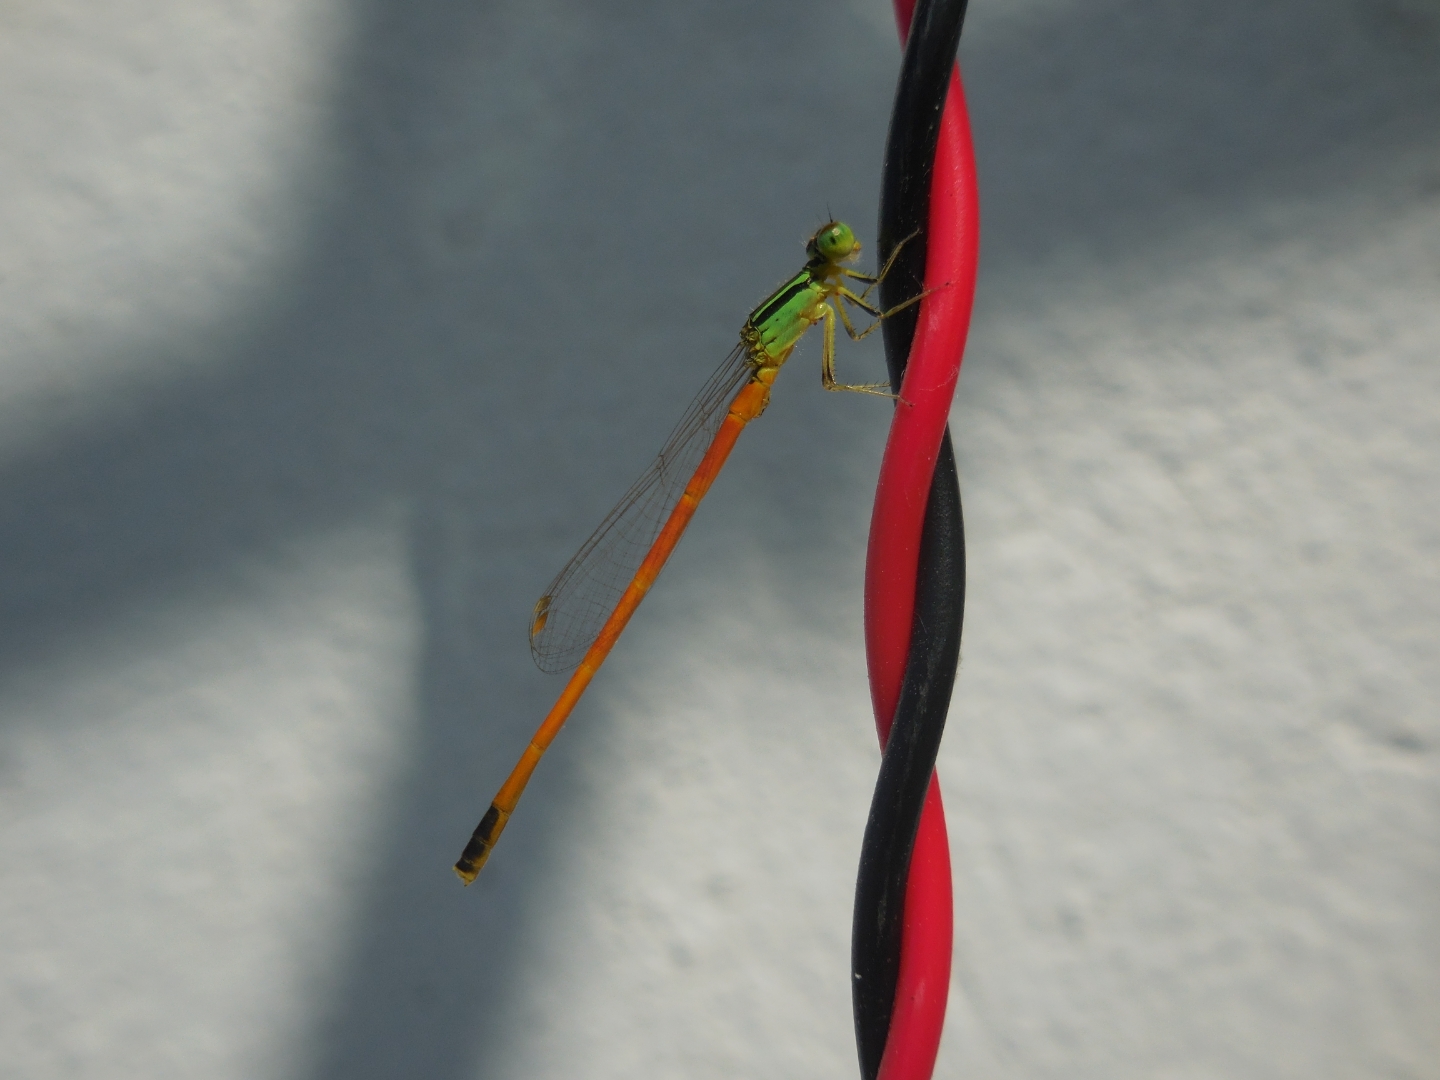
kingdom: Animalia
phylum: Arthropoda
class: Insecta
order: Odonata
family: Coenagrionidae
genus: Ischnura
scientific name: Ischnura rufostigma
